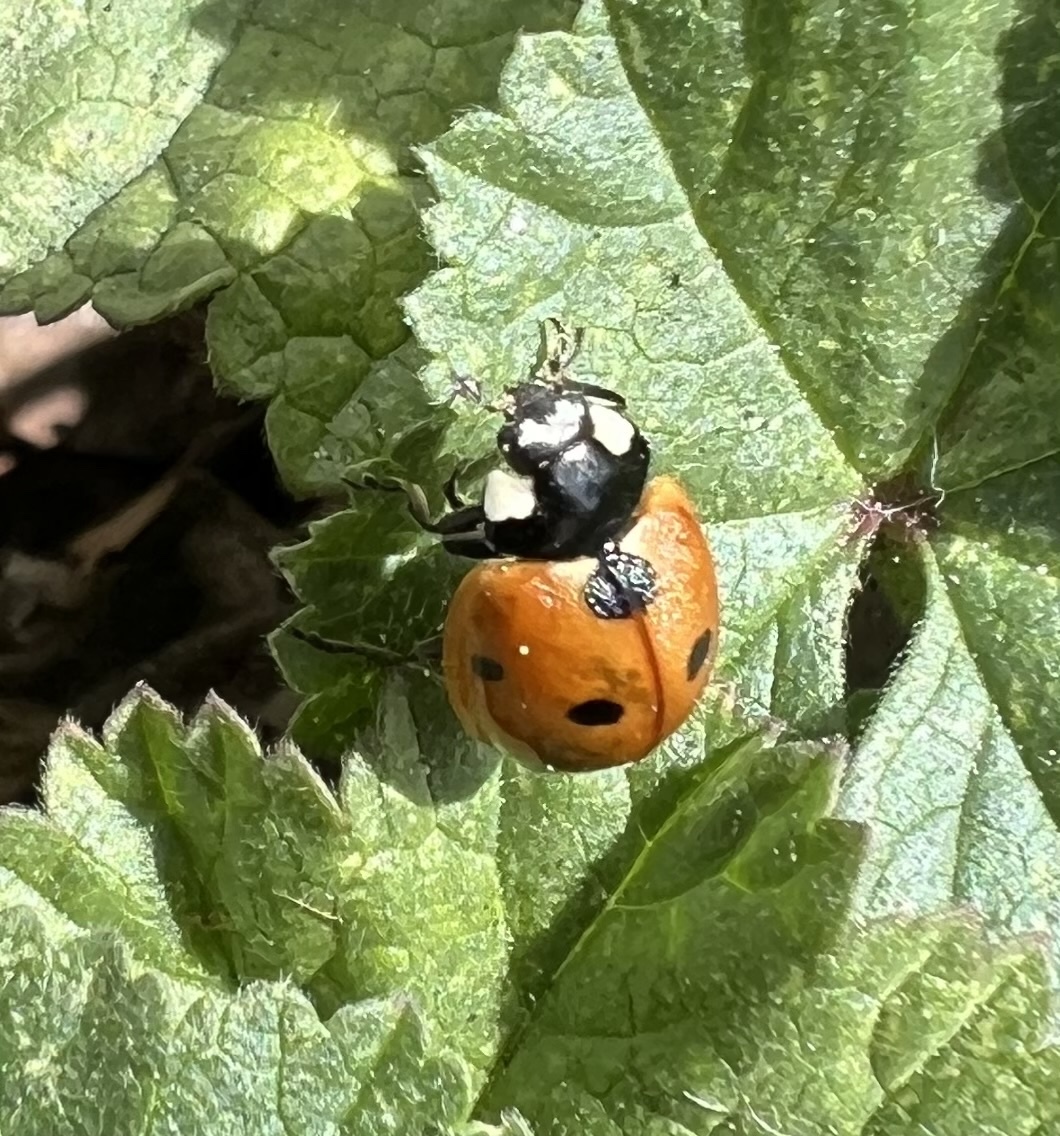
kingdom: Animalia
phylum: Arthropoda
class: Insecta
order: Coleoptera
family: Coccinellidae
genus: Coccinella
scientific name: Coccinella septempunctata
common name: Sevenspotted lady beetle
